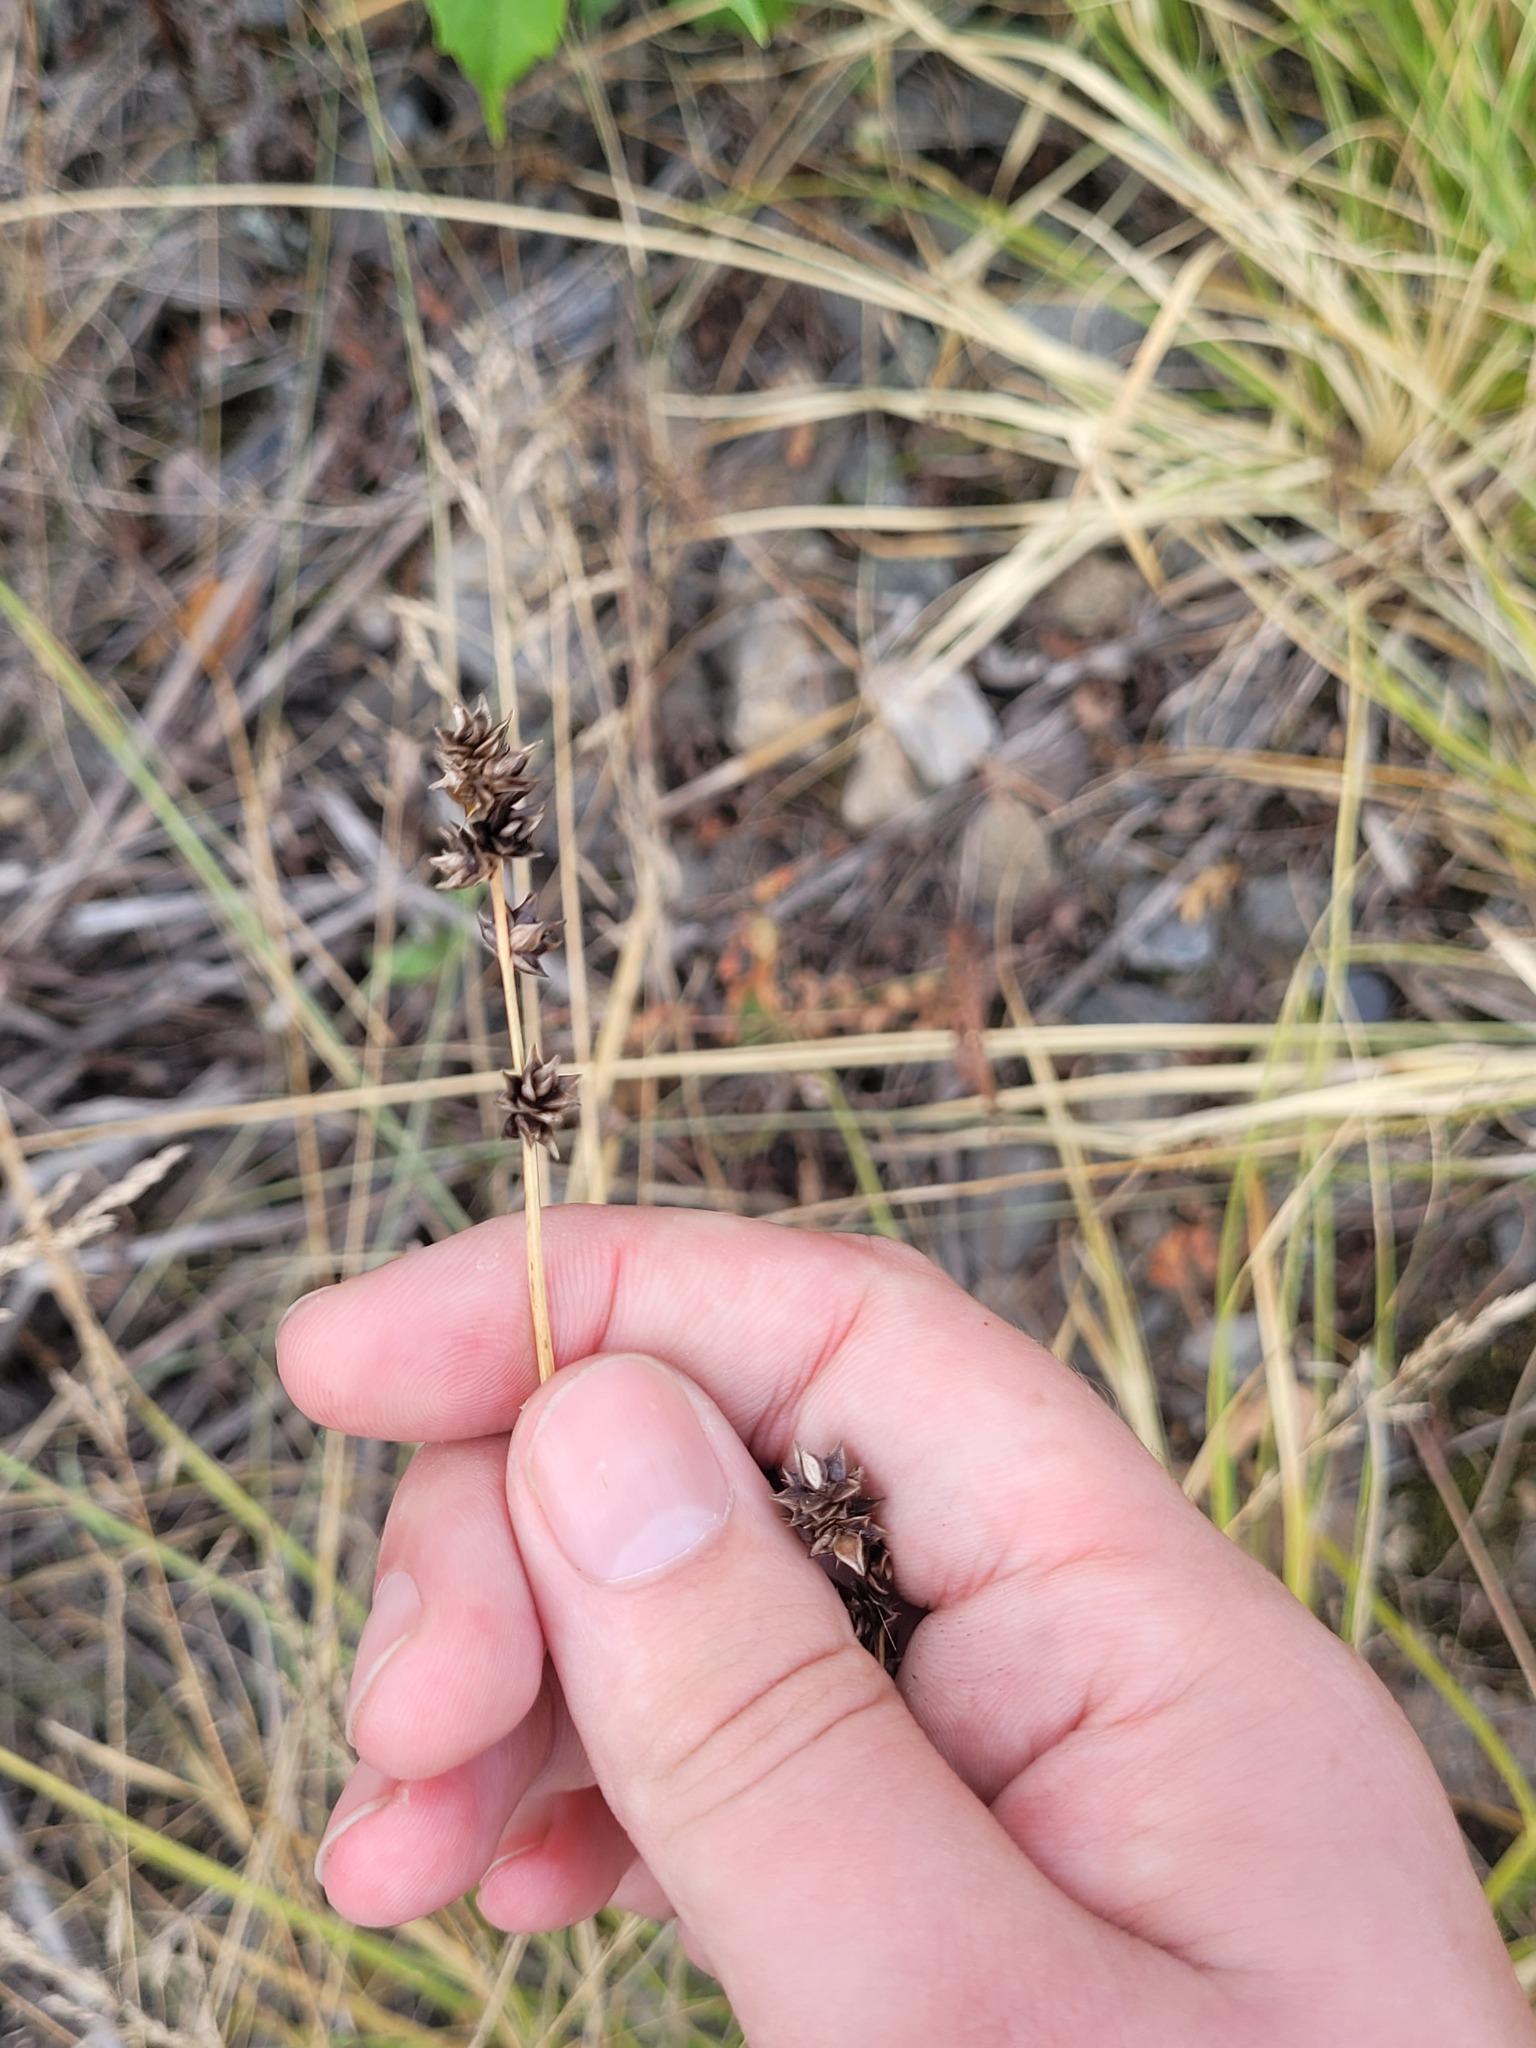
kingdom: Plantae
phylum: Tracheophyta
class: Liliopsida
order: Poales
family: Cyperaceae
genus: Carex
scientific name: Carex muricata
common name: Rough sedge
